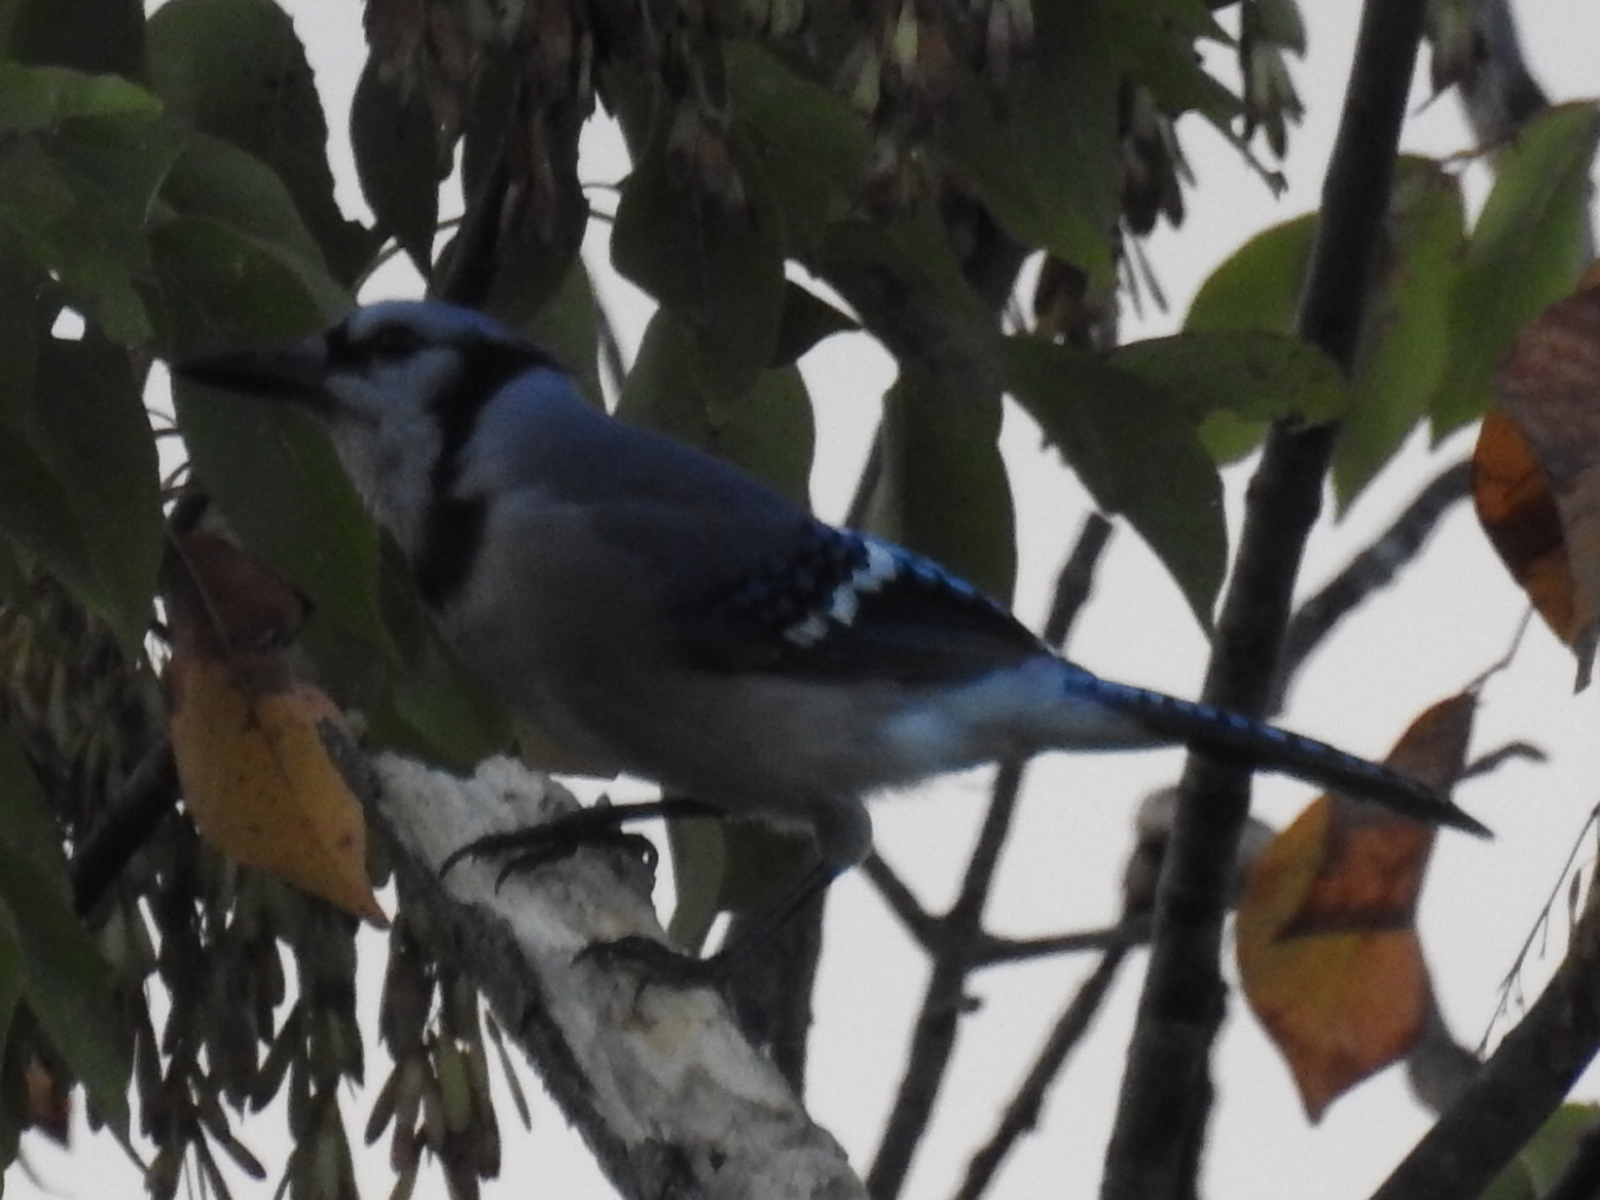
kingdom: Animalia
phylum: Chordata
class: Aves
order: Passeriformes
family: Corvidae
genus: Cyanocitta
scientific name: Cyanocitta cristata
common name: Blue jay
